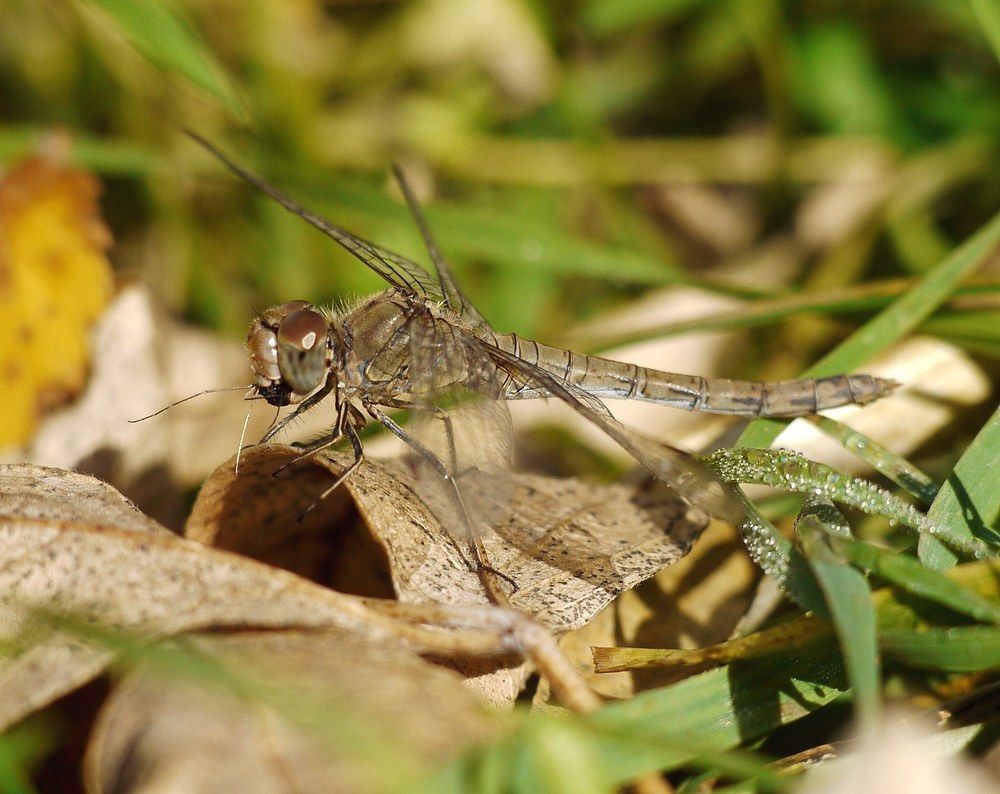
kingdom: Animalia
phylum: Arthropoda
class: Insecta
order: Odonata
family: Libellulidae
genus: Sympetrum
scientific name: Sympetrum striolatum
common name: Common darter
